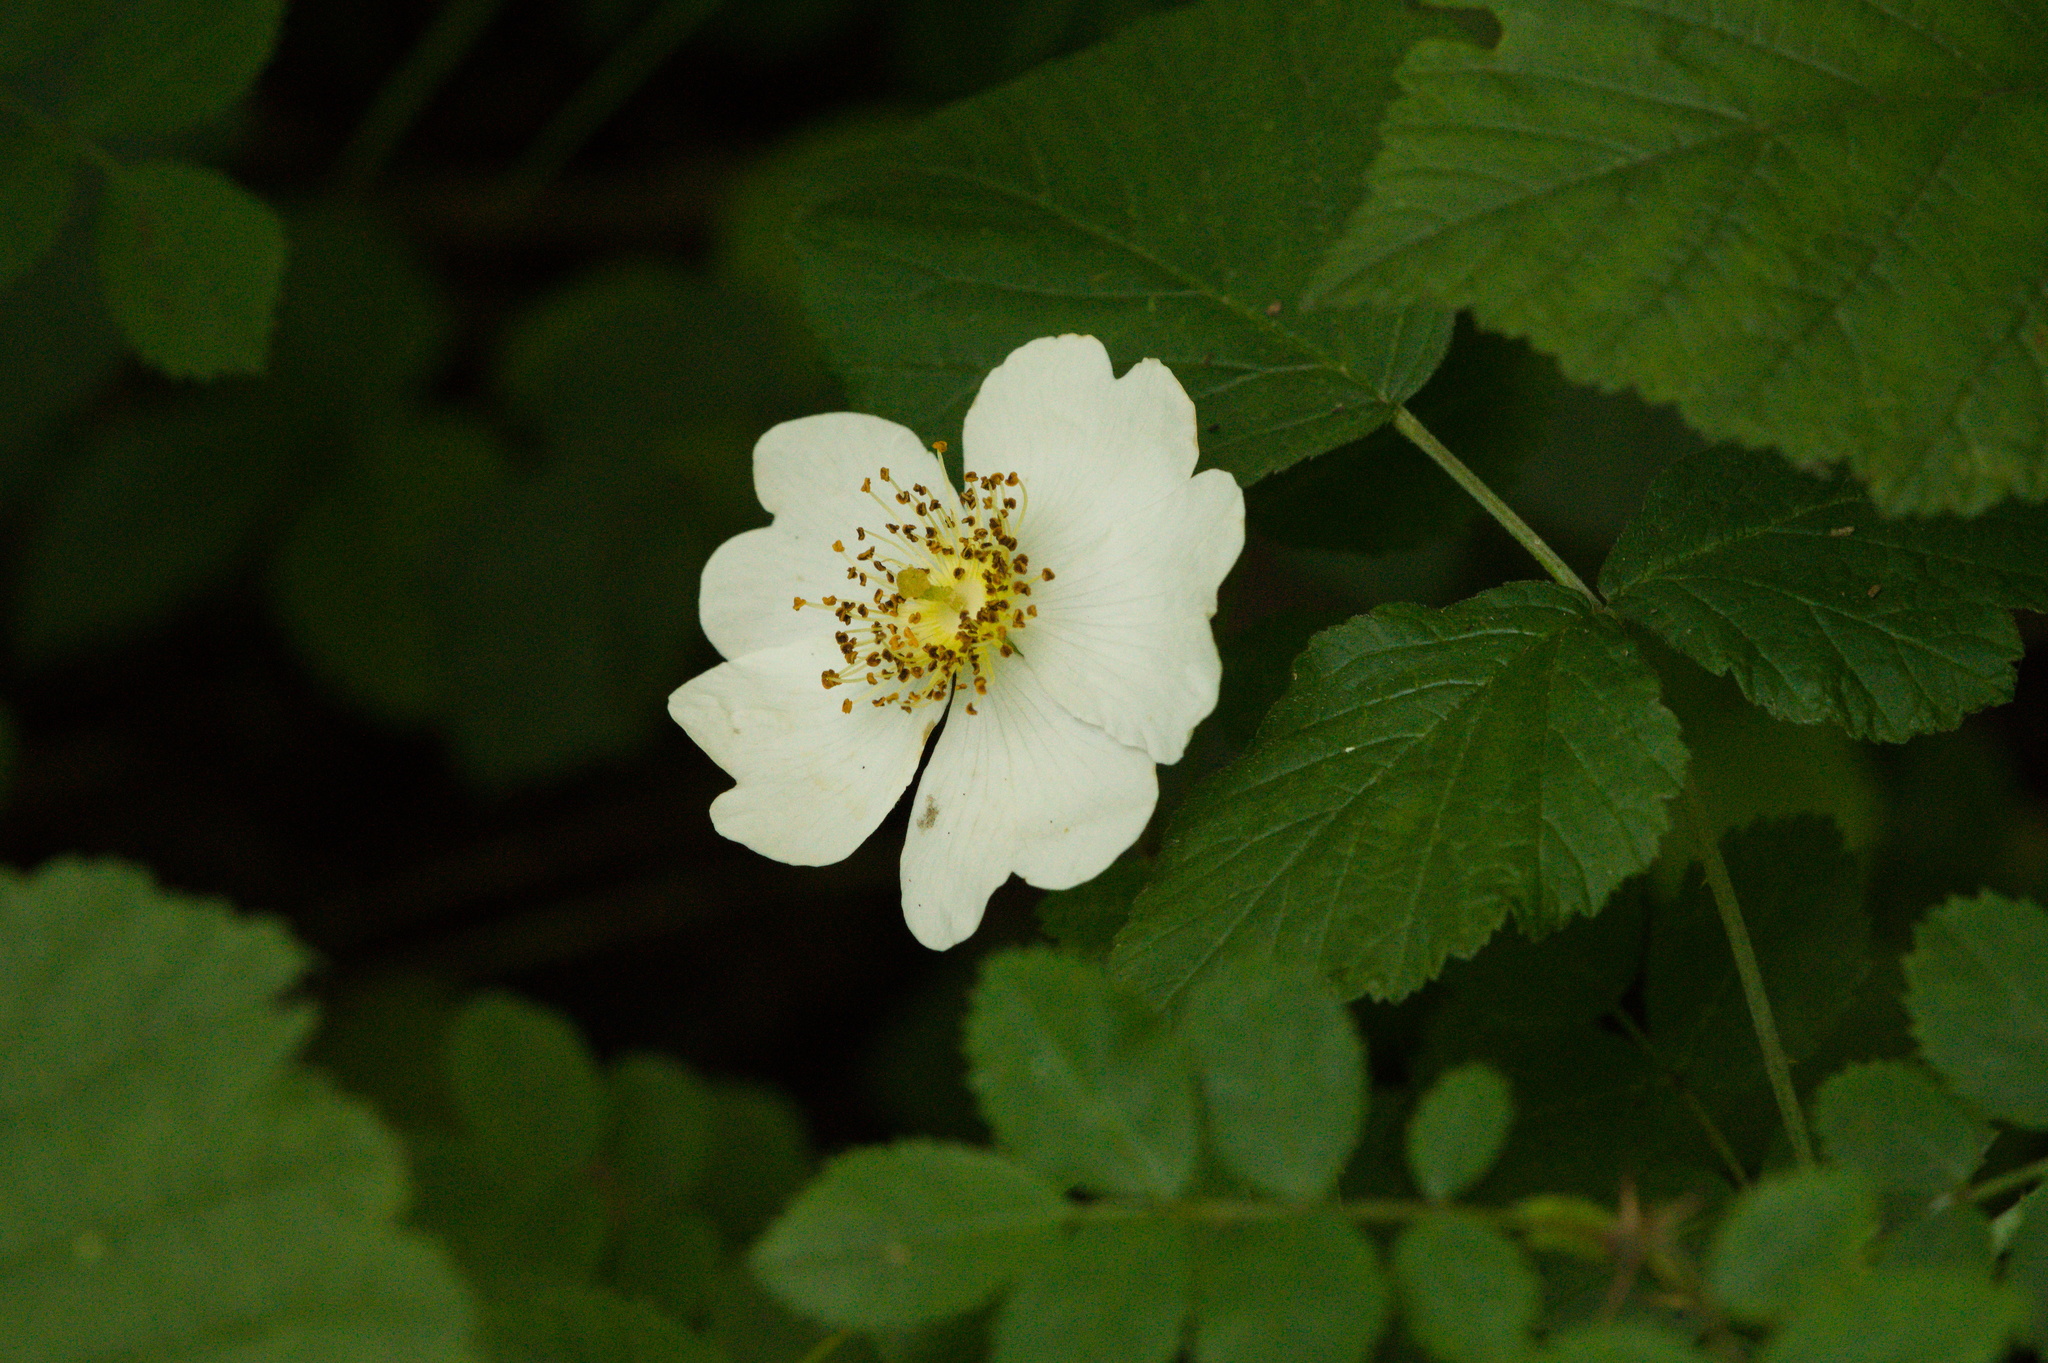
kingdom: Plantae
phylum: Tracheophyta
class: Magnoliopsida
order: Rosales
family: Rosaceae
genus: Rosa
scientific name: Rosa arvensis
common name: Field rose
